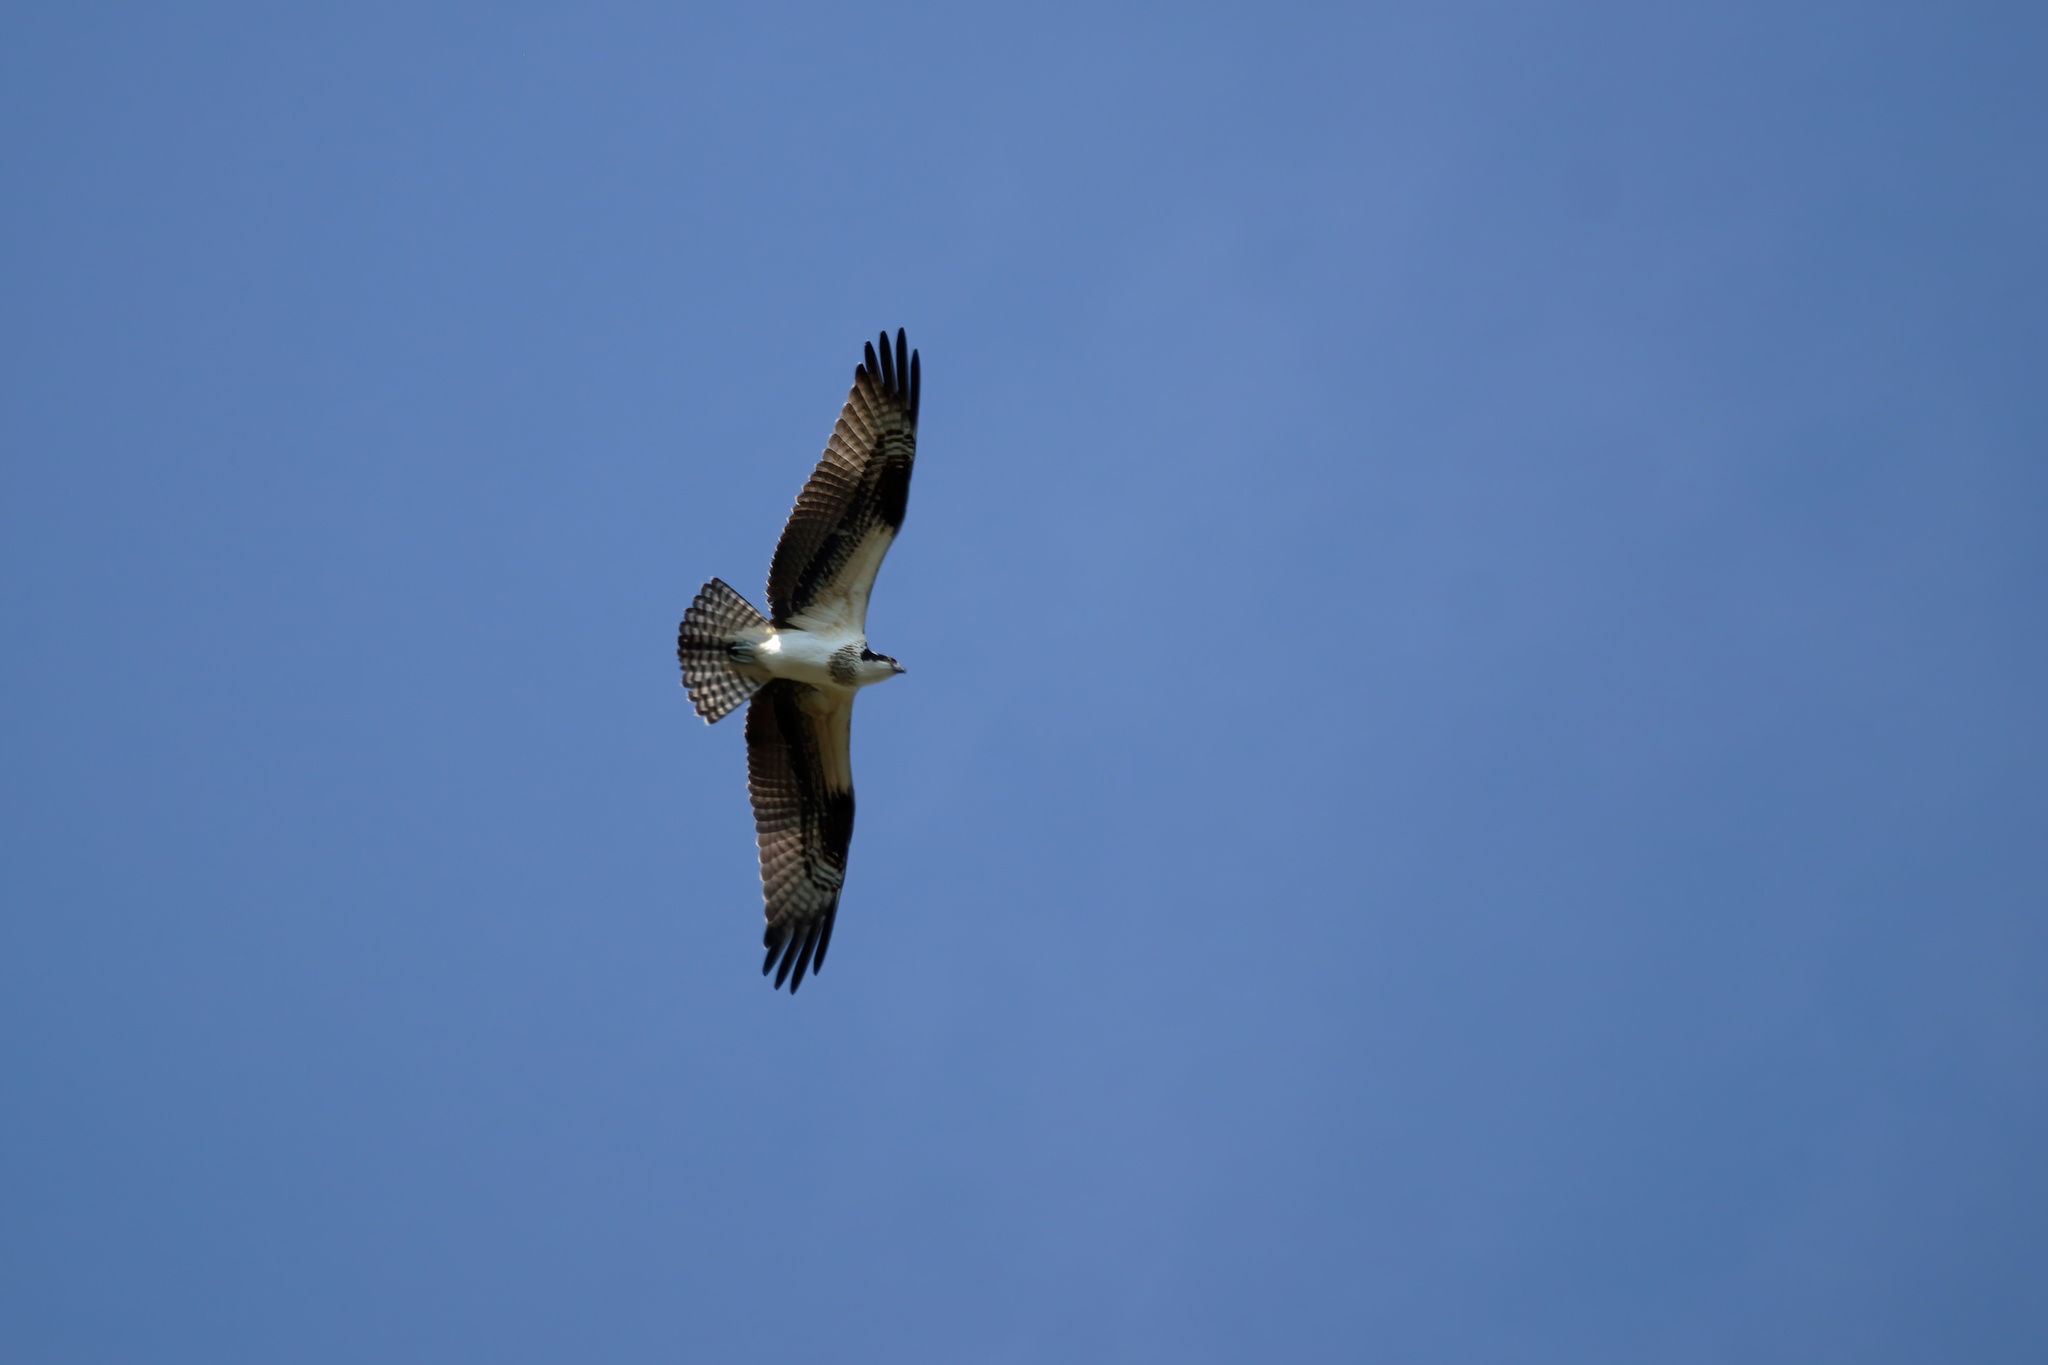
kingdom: Animalia
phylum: Chordata
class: Aves
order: Accipitriformes
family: Pandionidae
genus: Pandion
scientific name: Pandion haliaetus
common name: Osprey
